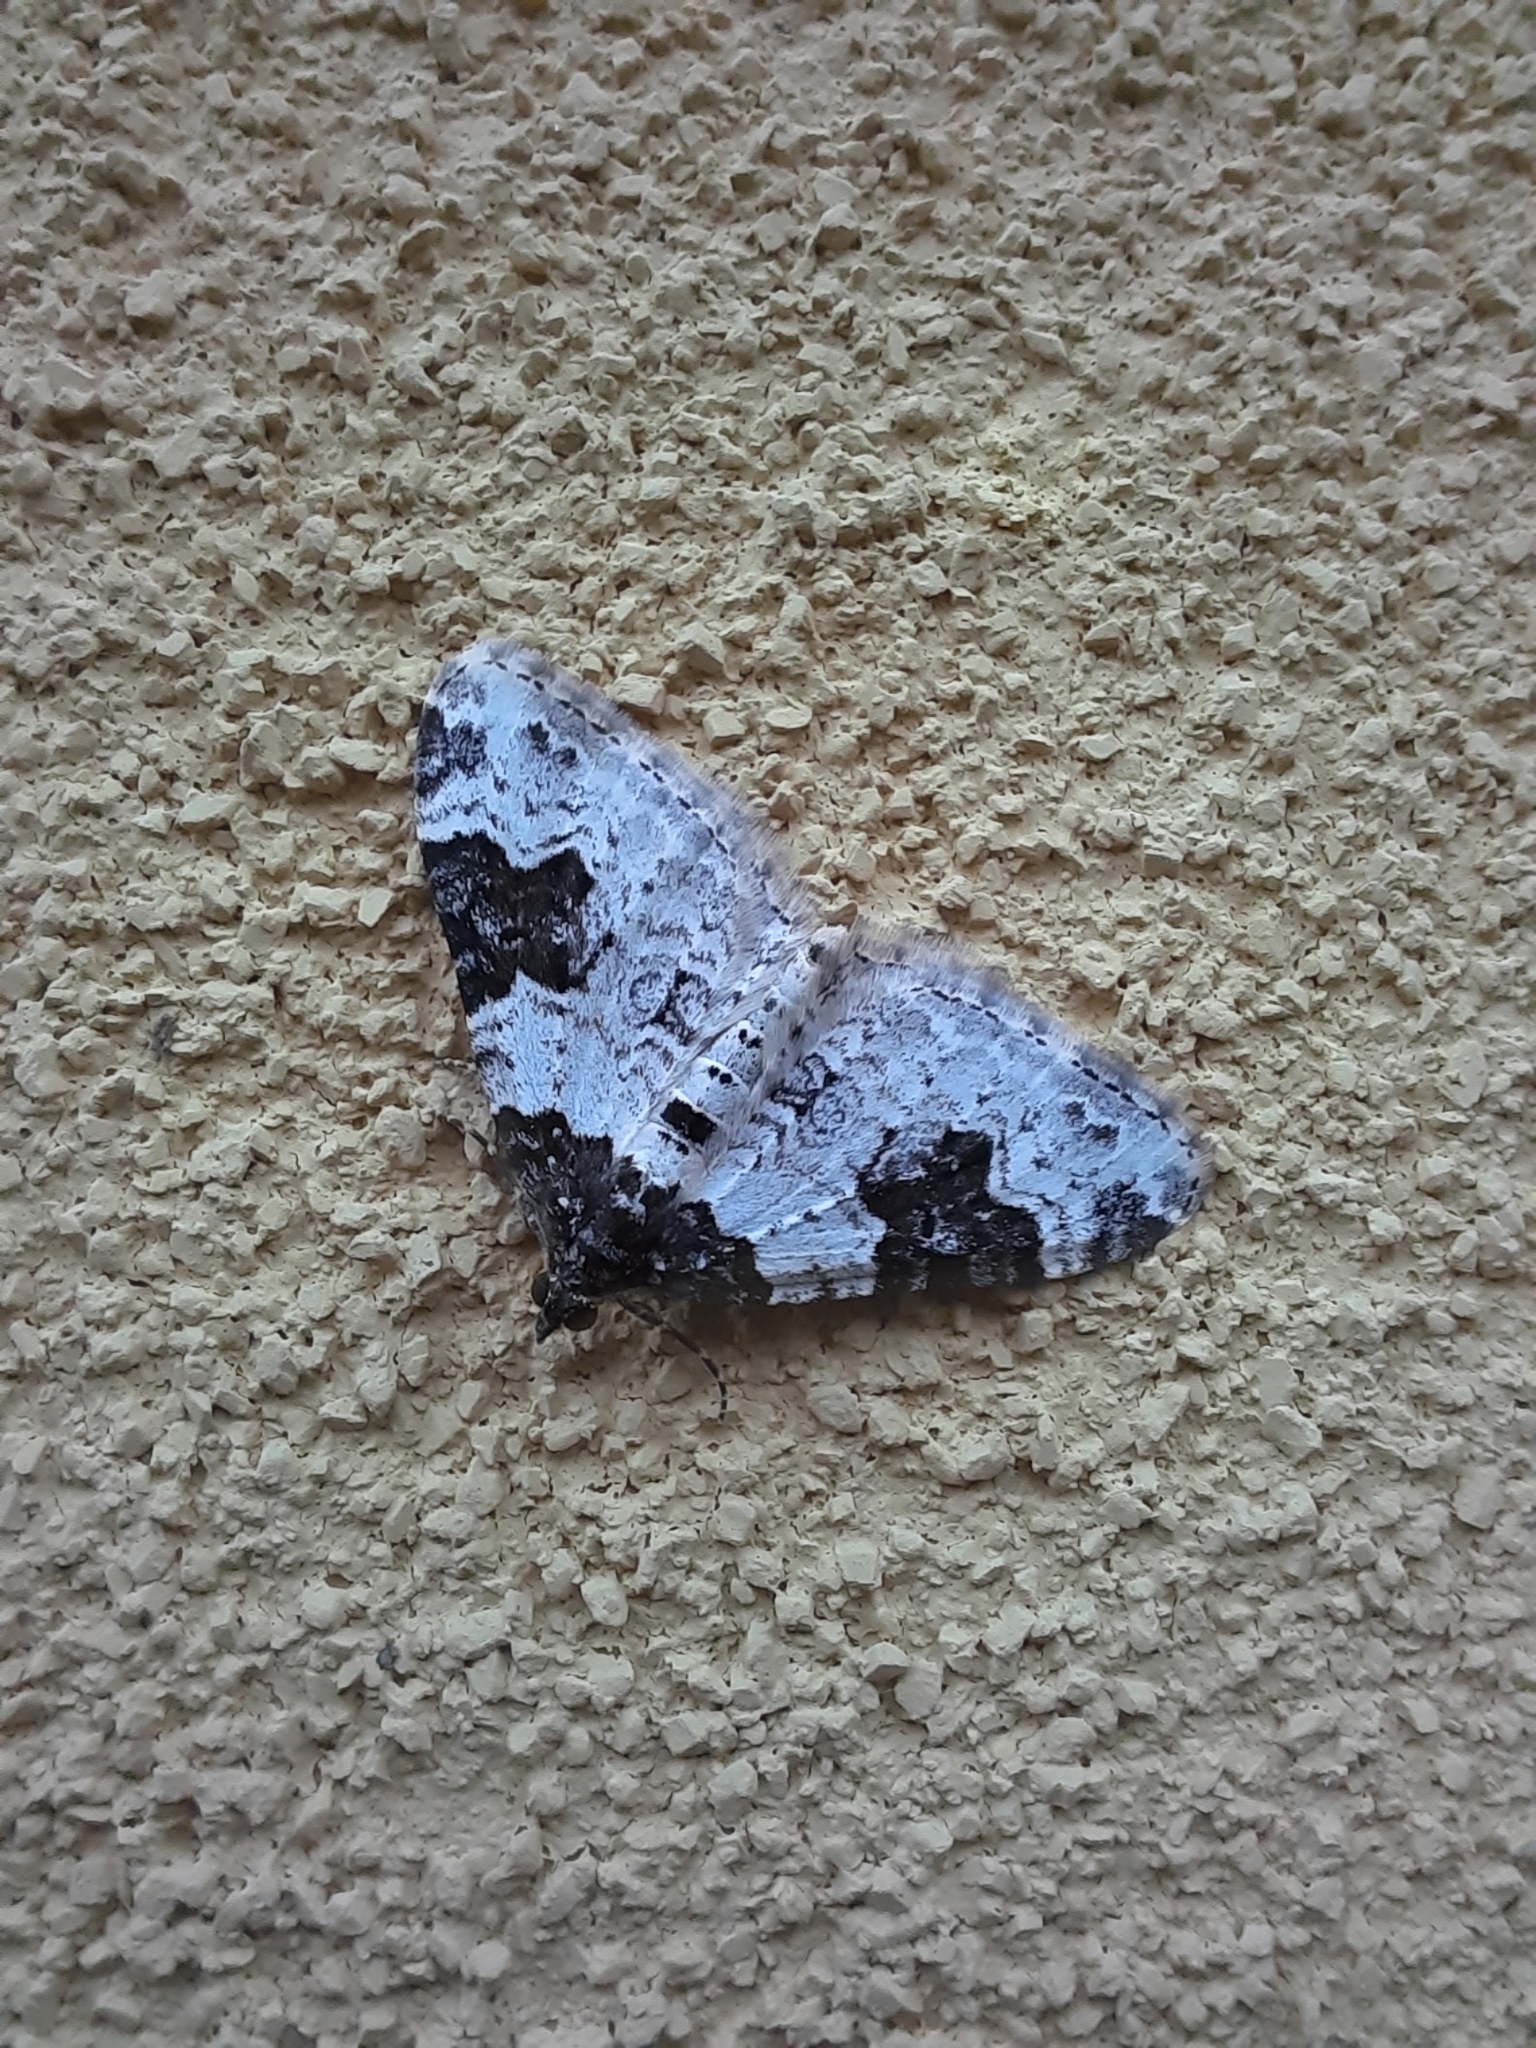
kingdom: Animalia
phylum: Arthropoda
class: Insecta
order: Lepidoptera
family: Geometridae
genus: Xanthorhoe
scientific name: Xanthorhoe fluctuata
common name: Garden carpet
